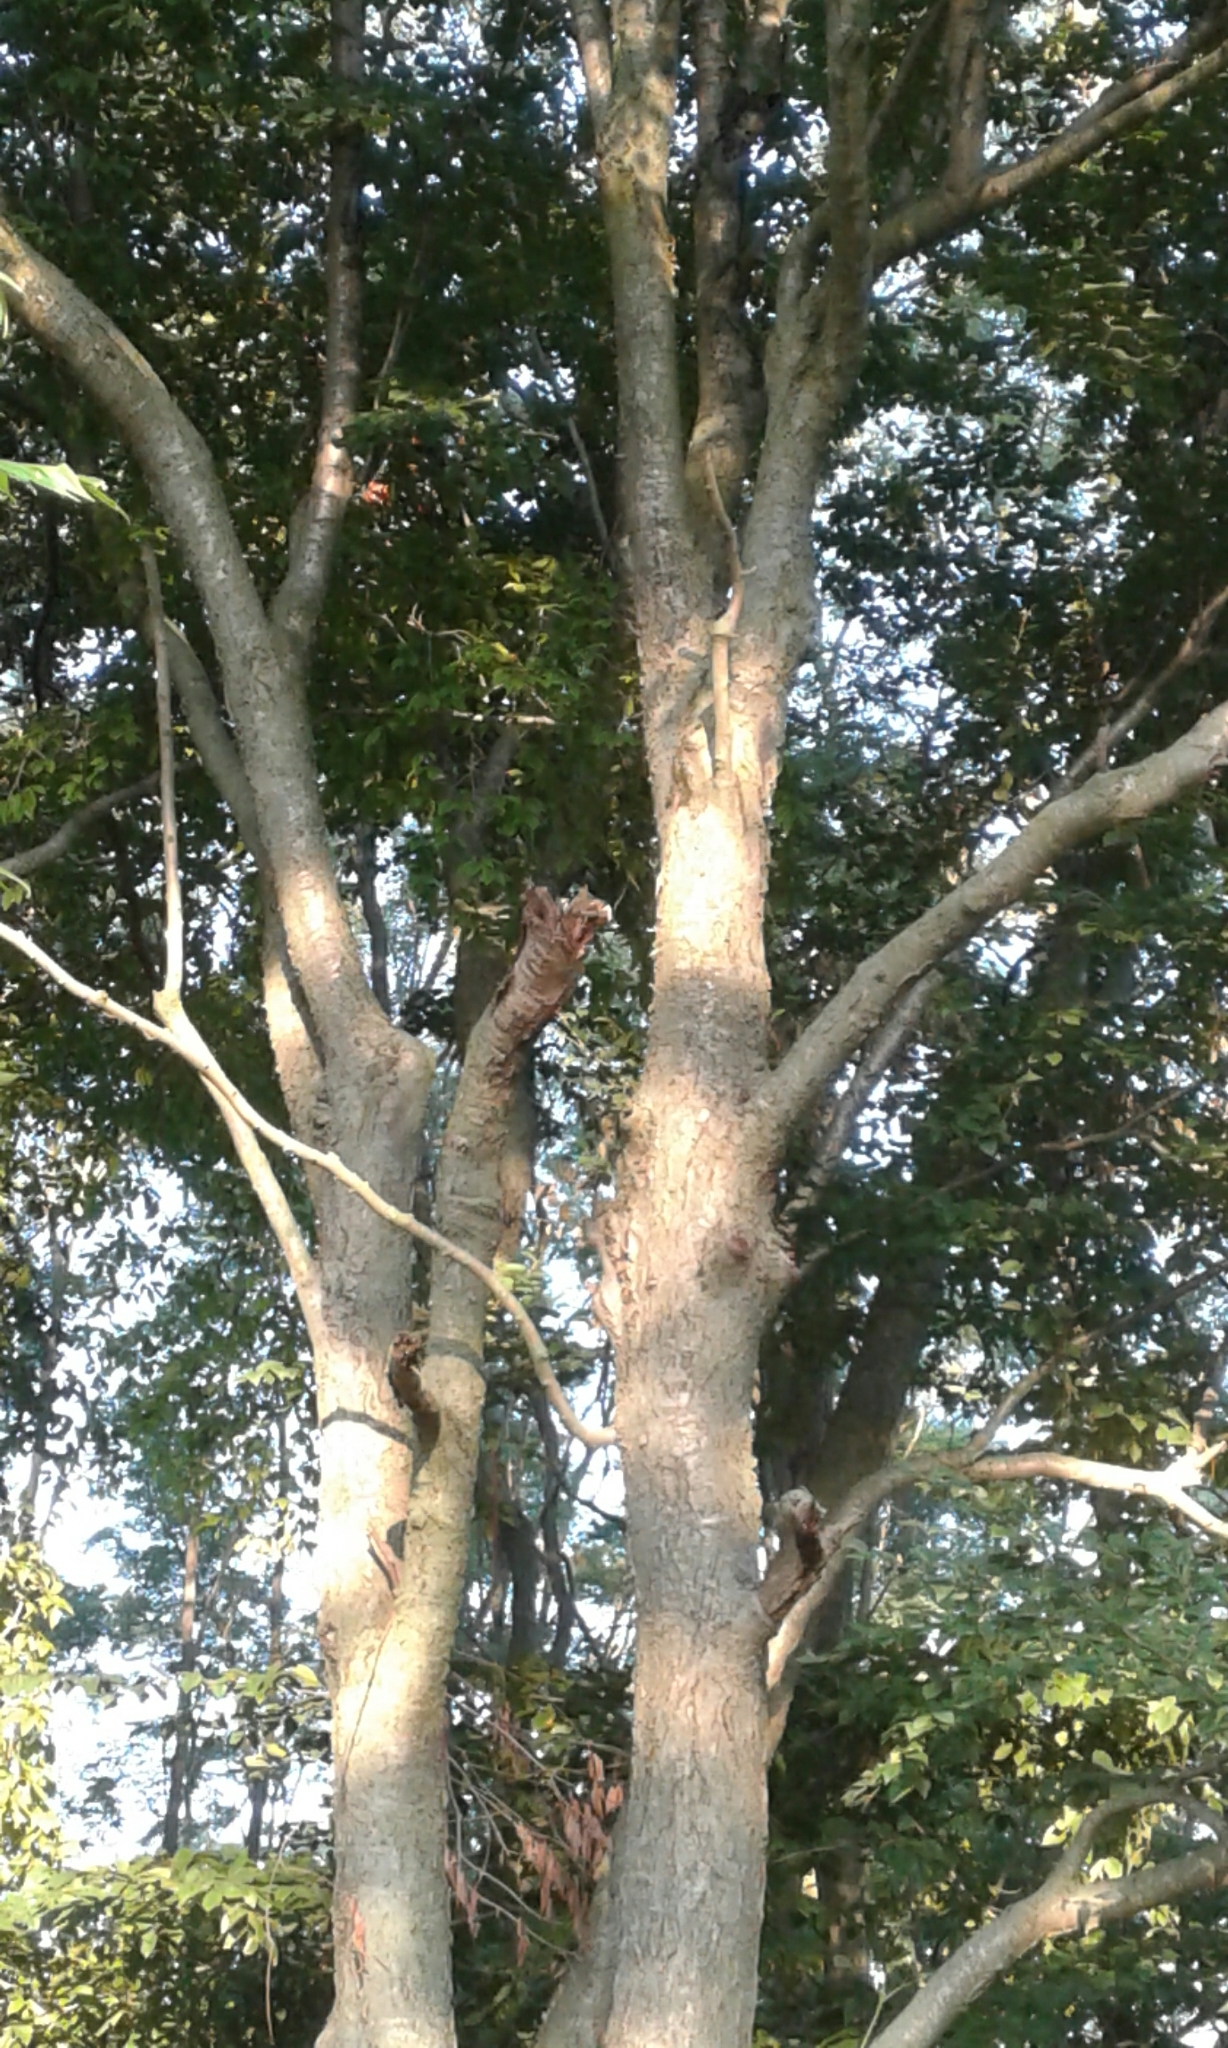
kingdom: Plantae
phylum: Tracheophyta
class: Magnoliopsida
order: Fagales
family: Betulaceae
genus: Betula
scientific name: Betula alleghaniensis
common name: Yellow birch
